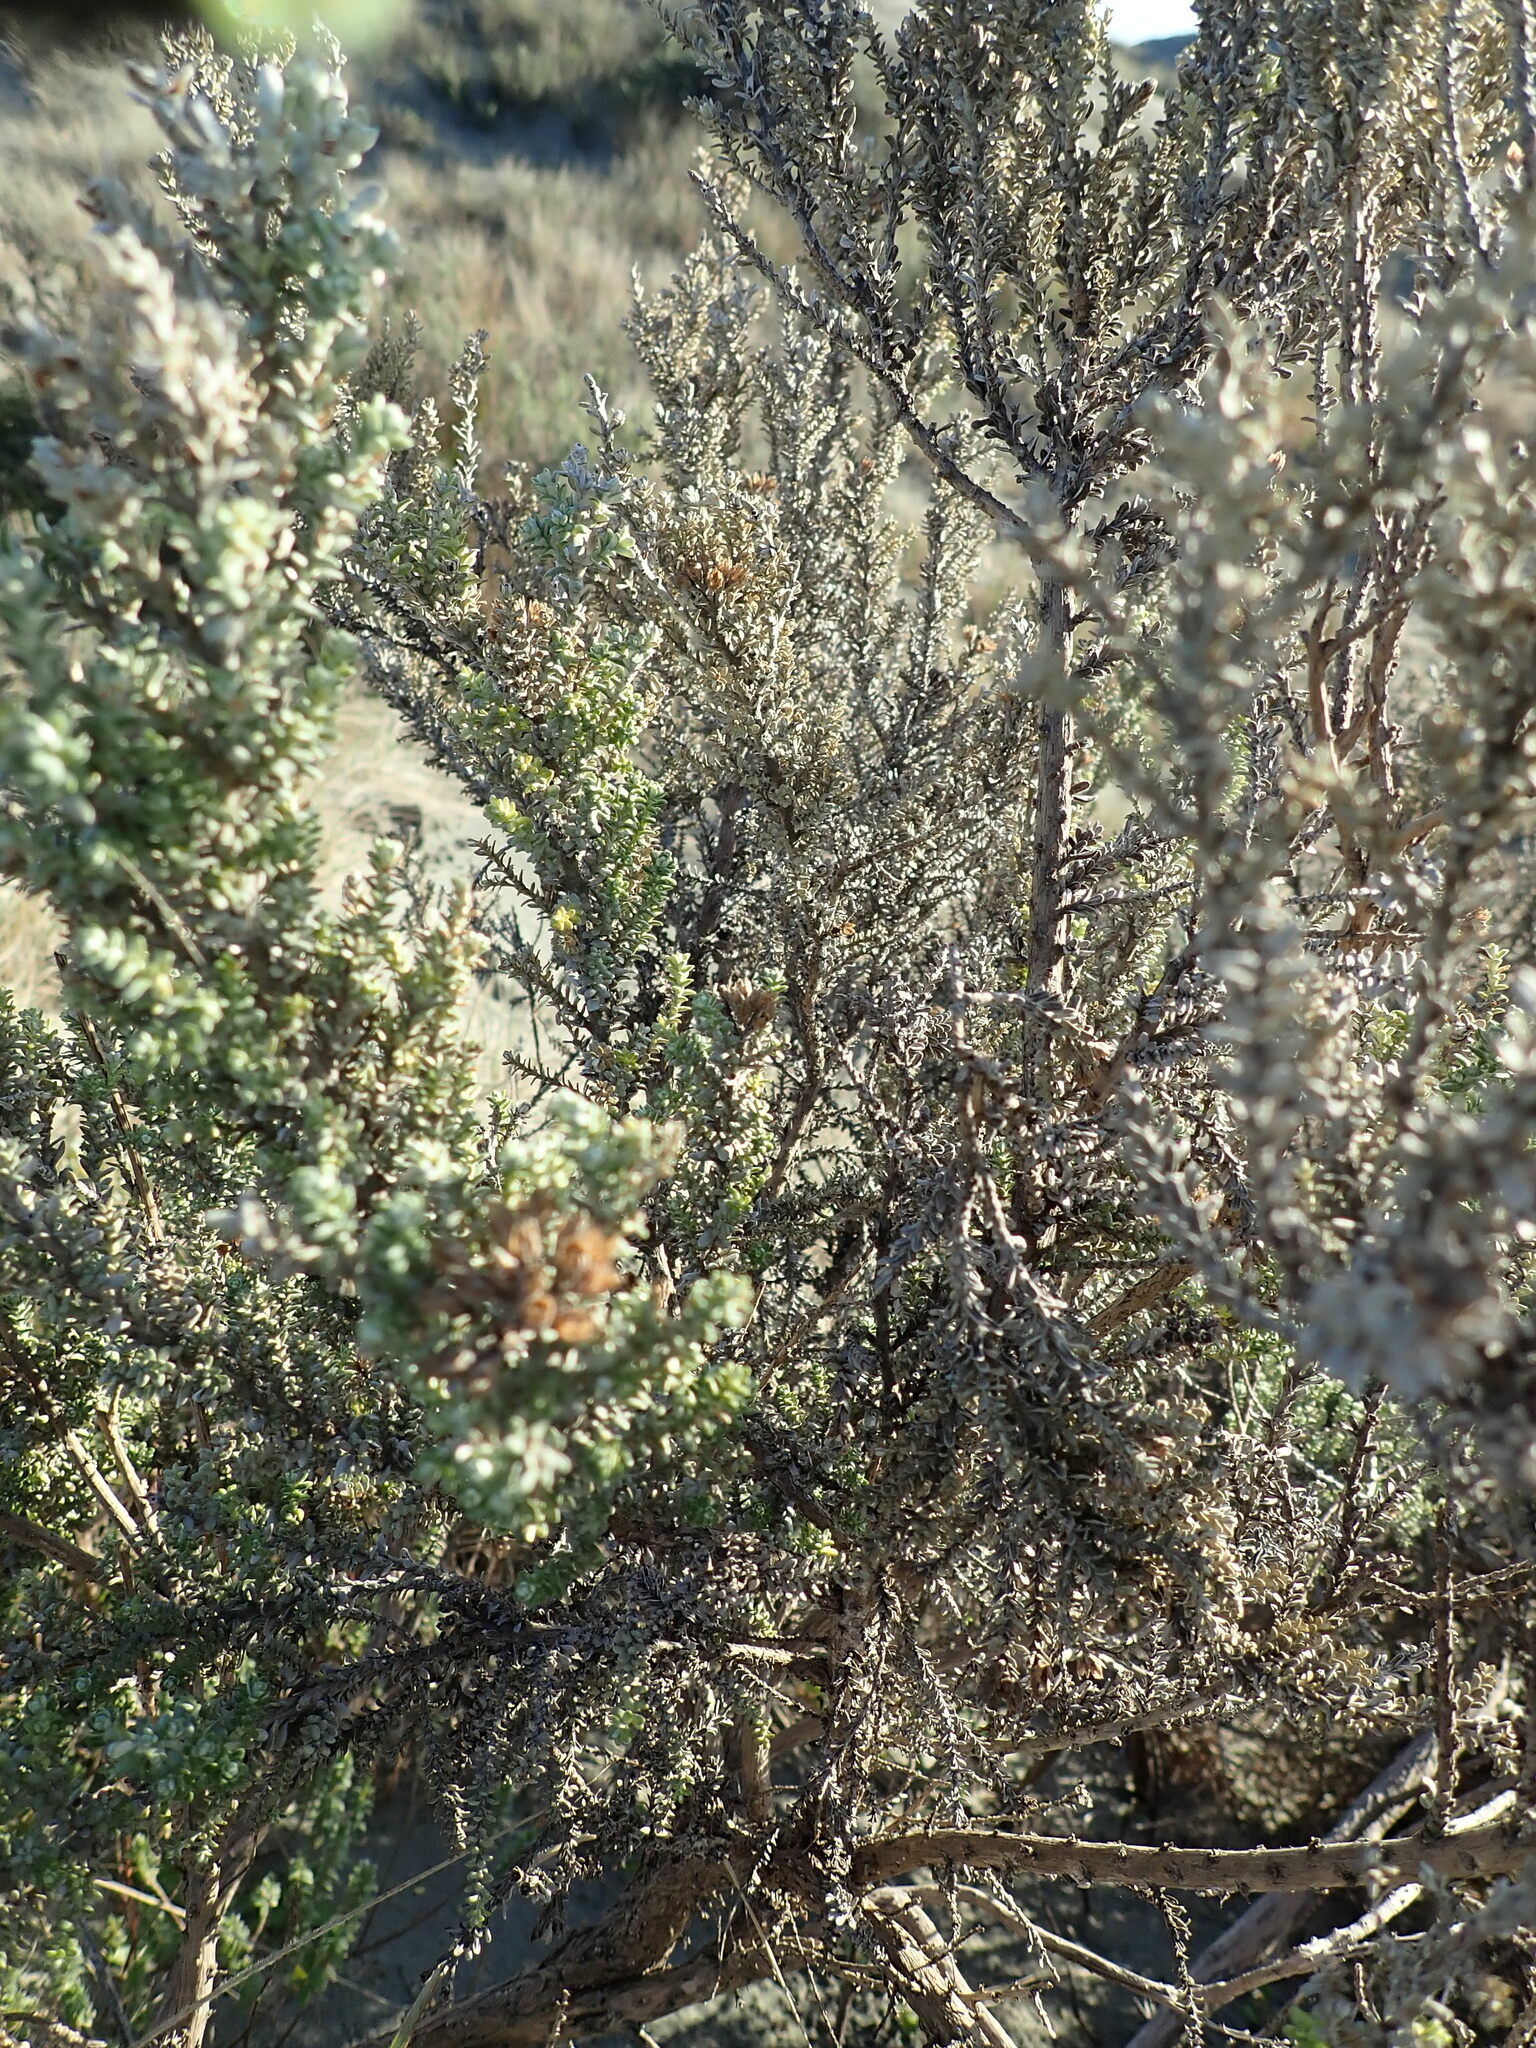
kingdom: Plantae
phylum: Tracheophyta
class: Magnoliopsida
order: Asterales
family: Asteraceae
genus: Ozothamnus
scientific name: Ozothamnus leptophyllus
